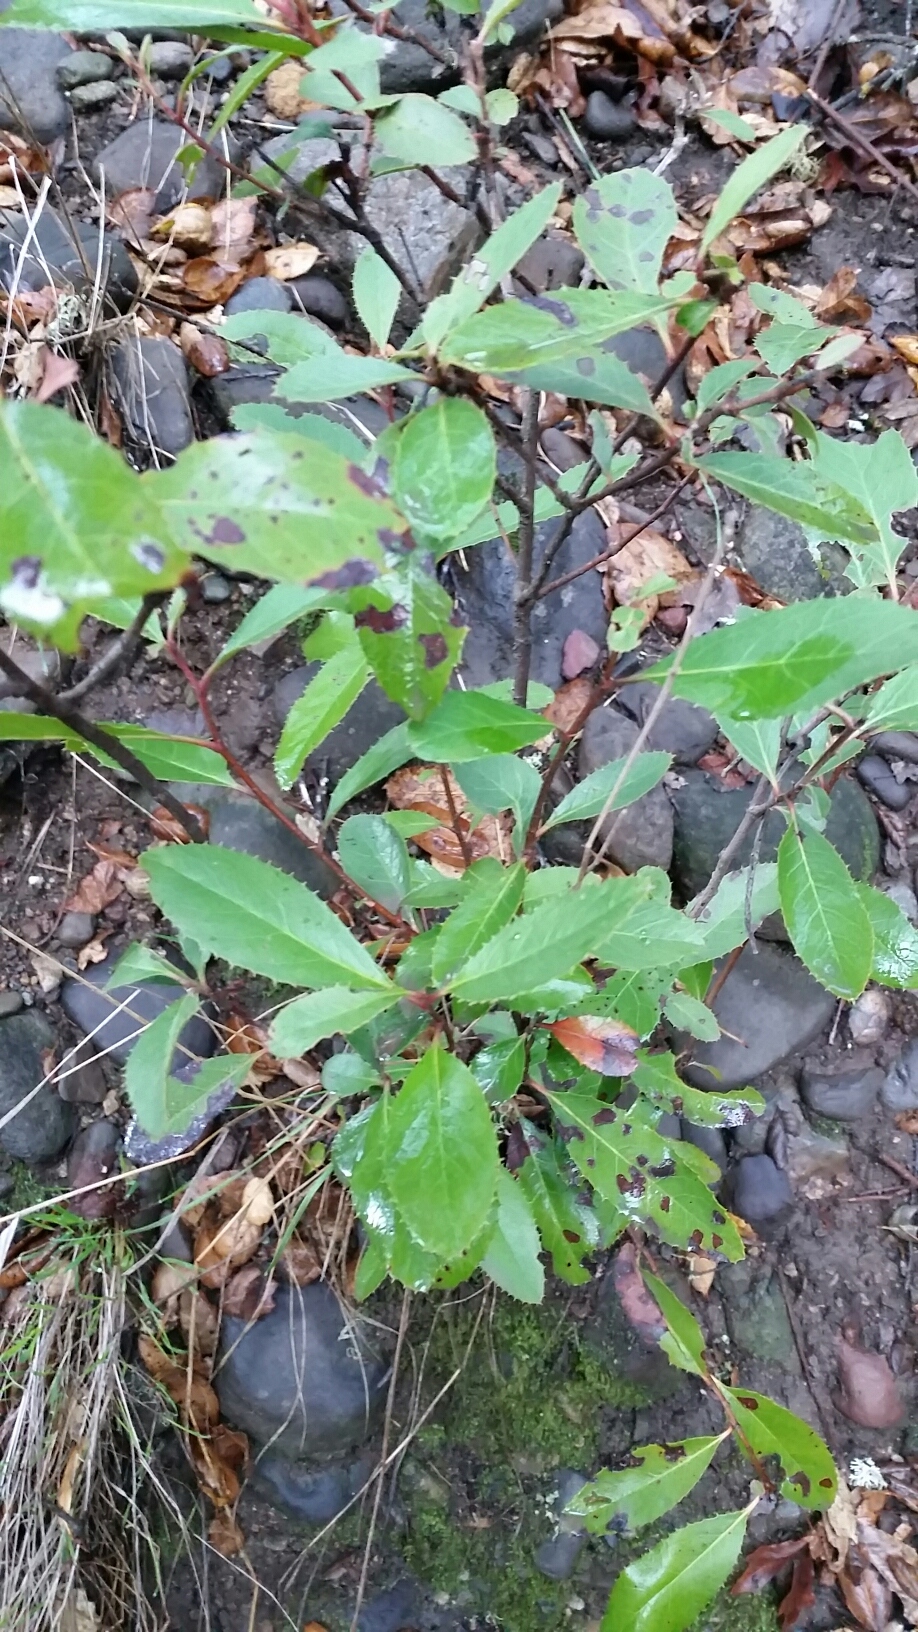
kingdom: Plantae
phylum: Tracheophyta
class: Magnoliopsida
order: Rosales
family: Rosaceae
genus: Heteromeles
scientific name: Heteromeles arbutifolia
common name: California-holly
